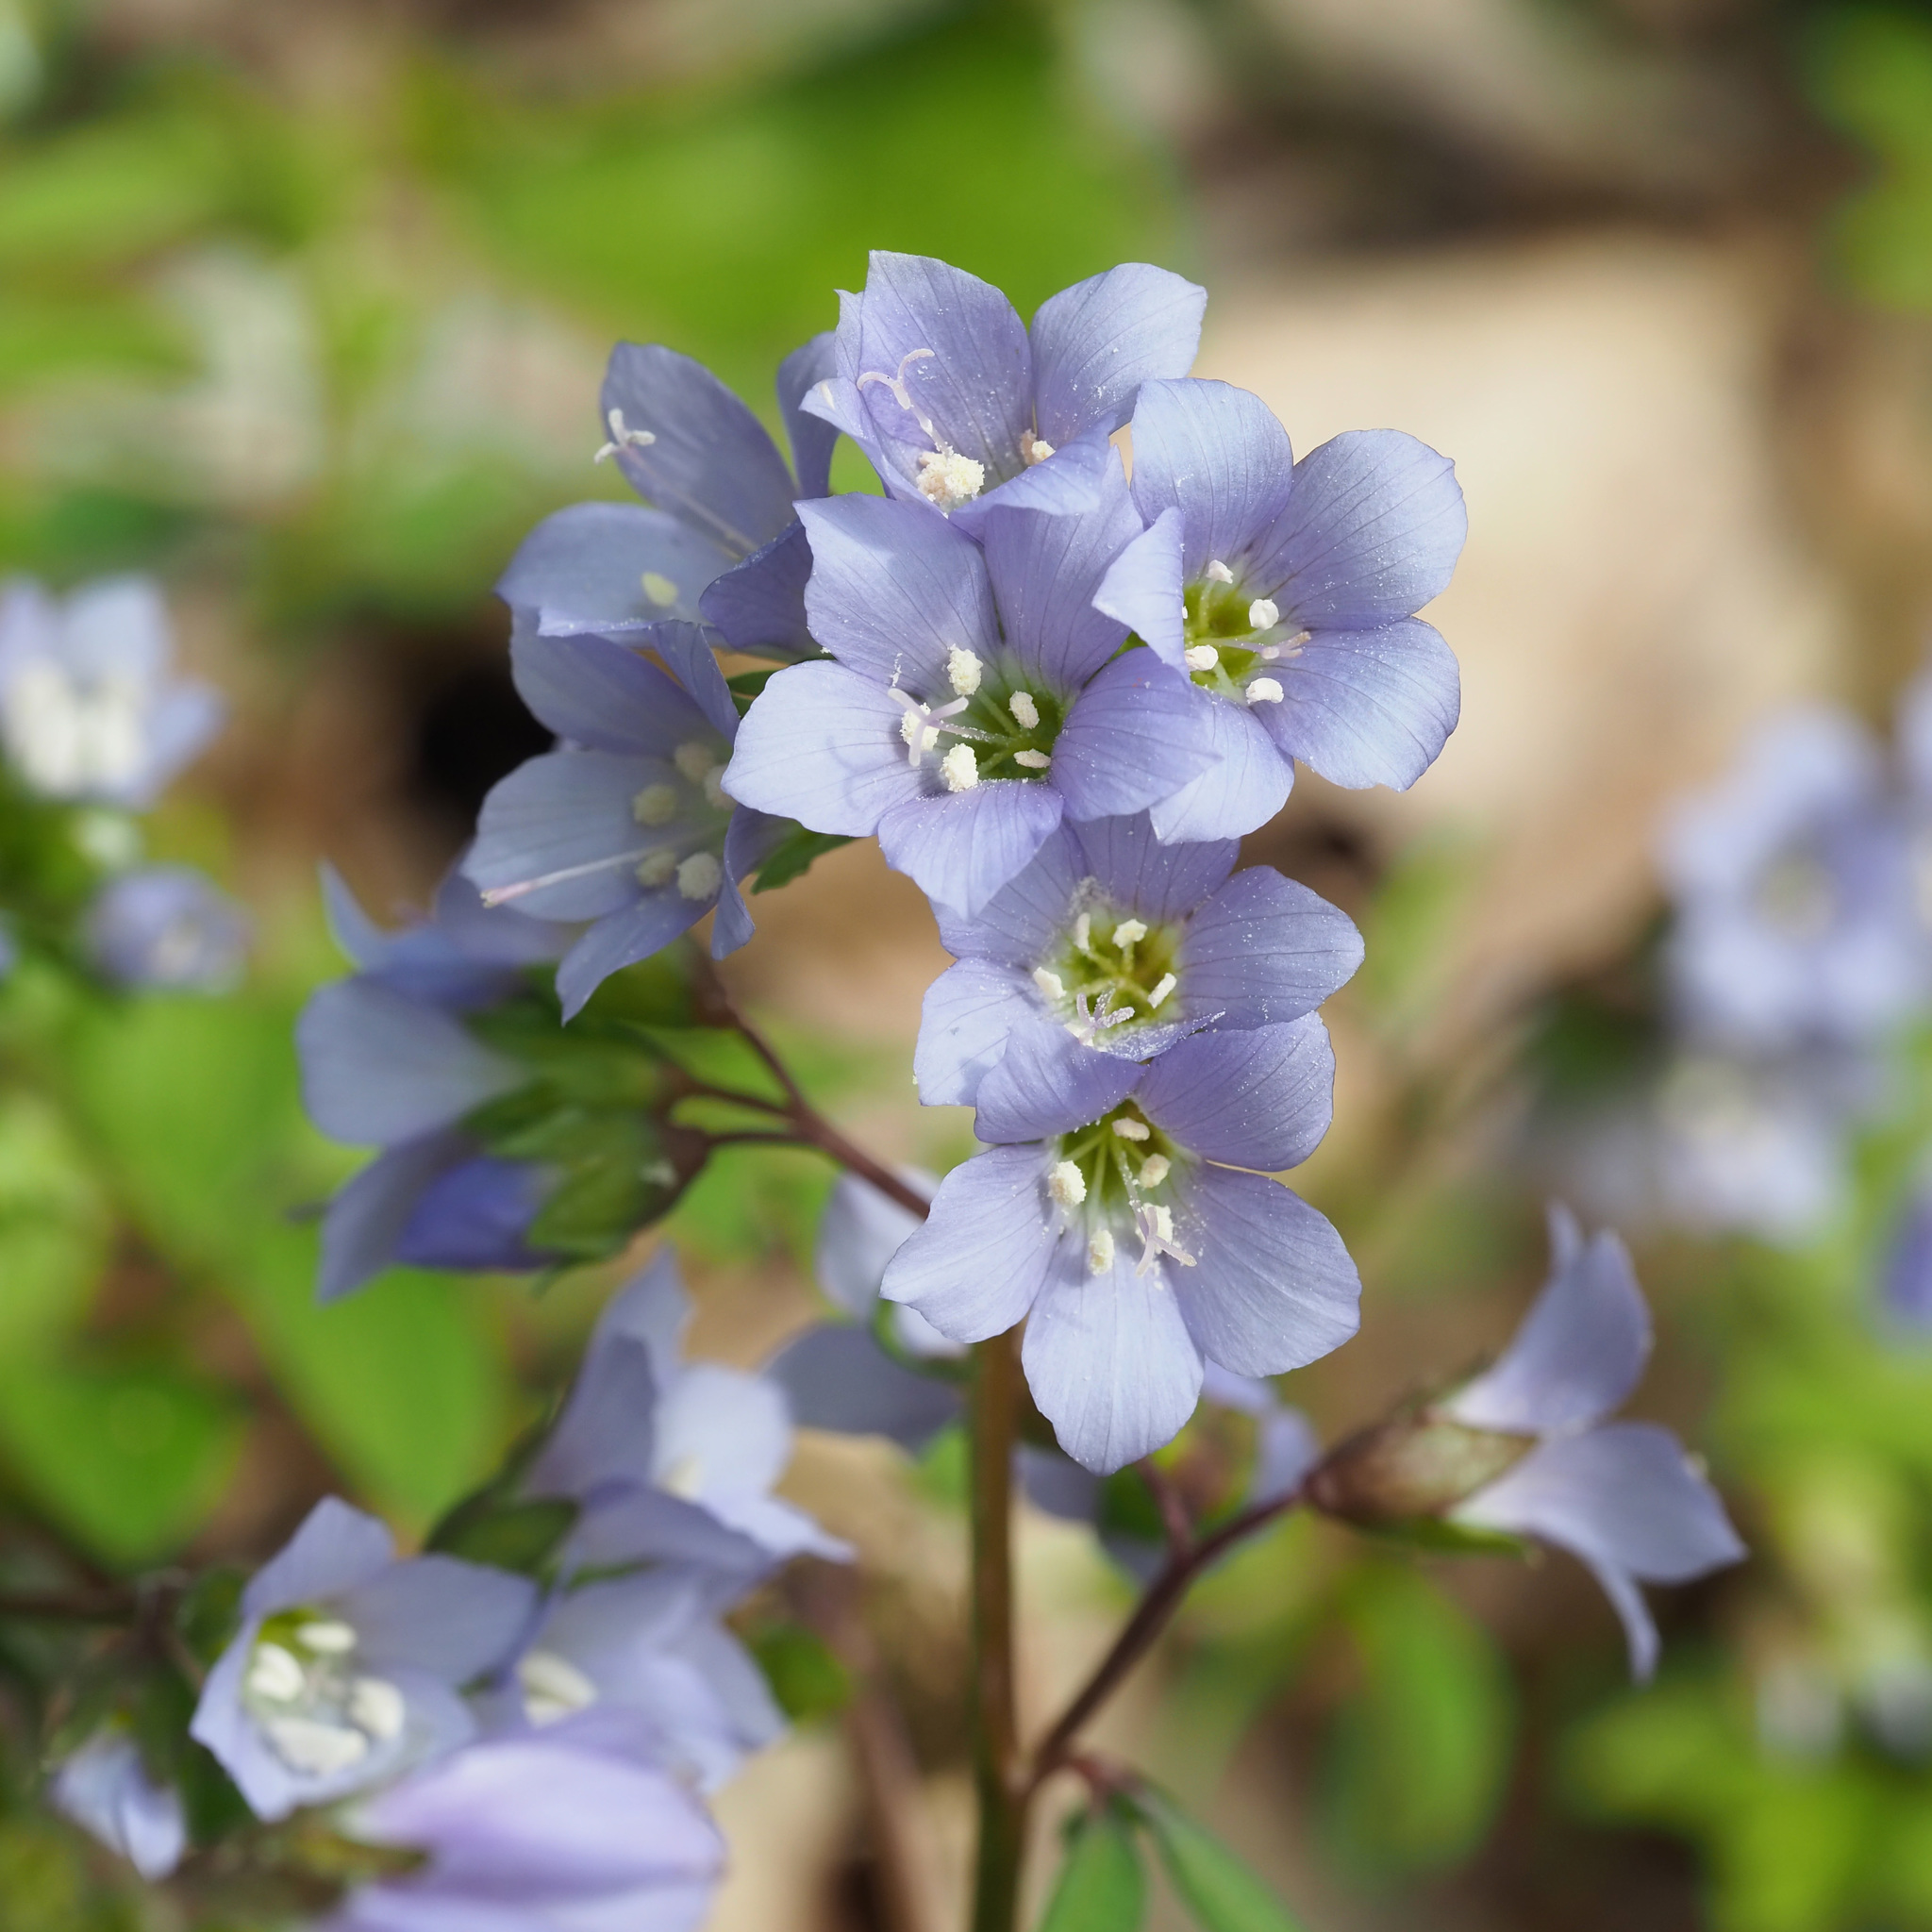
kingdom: Plantae
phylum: Tracheophyta
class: Magnoliopsida
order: Ericales
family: Polemoniaceae
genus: Polemonium
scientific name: Polemonium reptans
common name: Creeping jacob's-ladder
